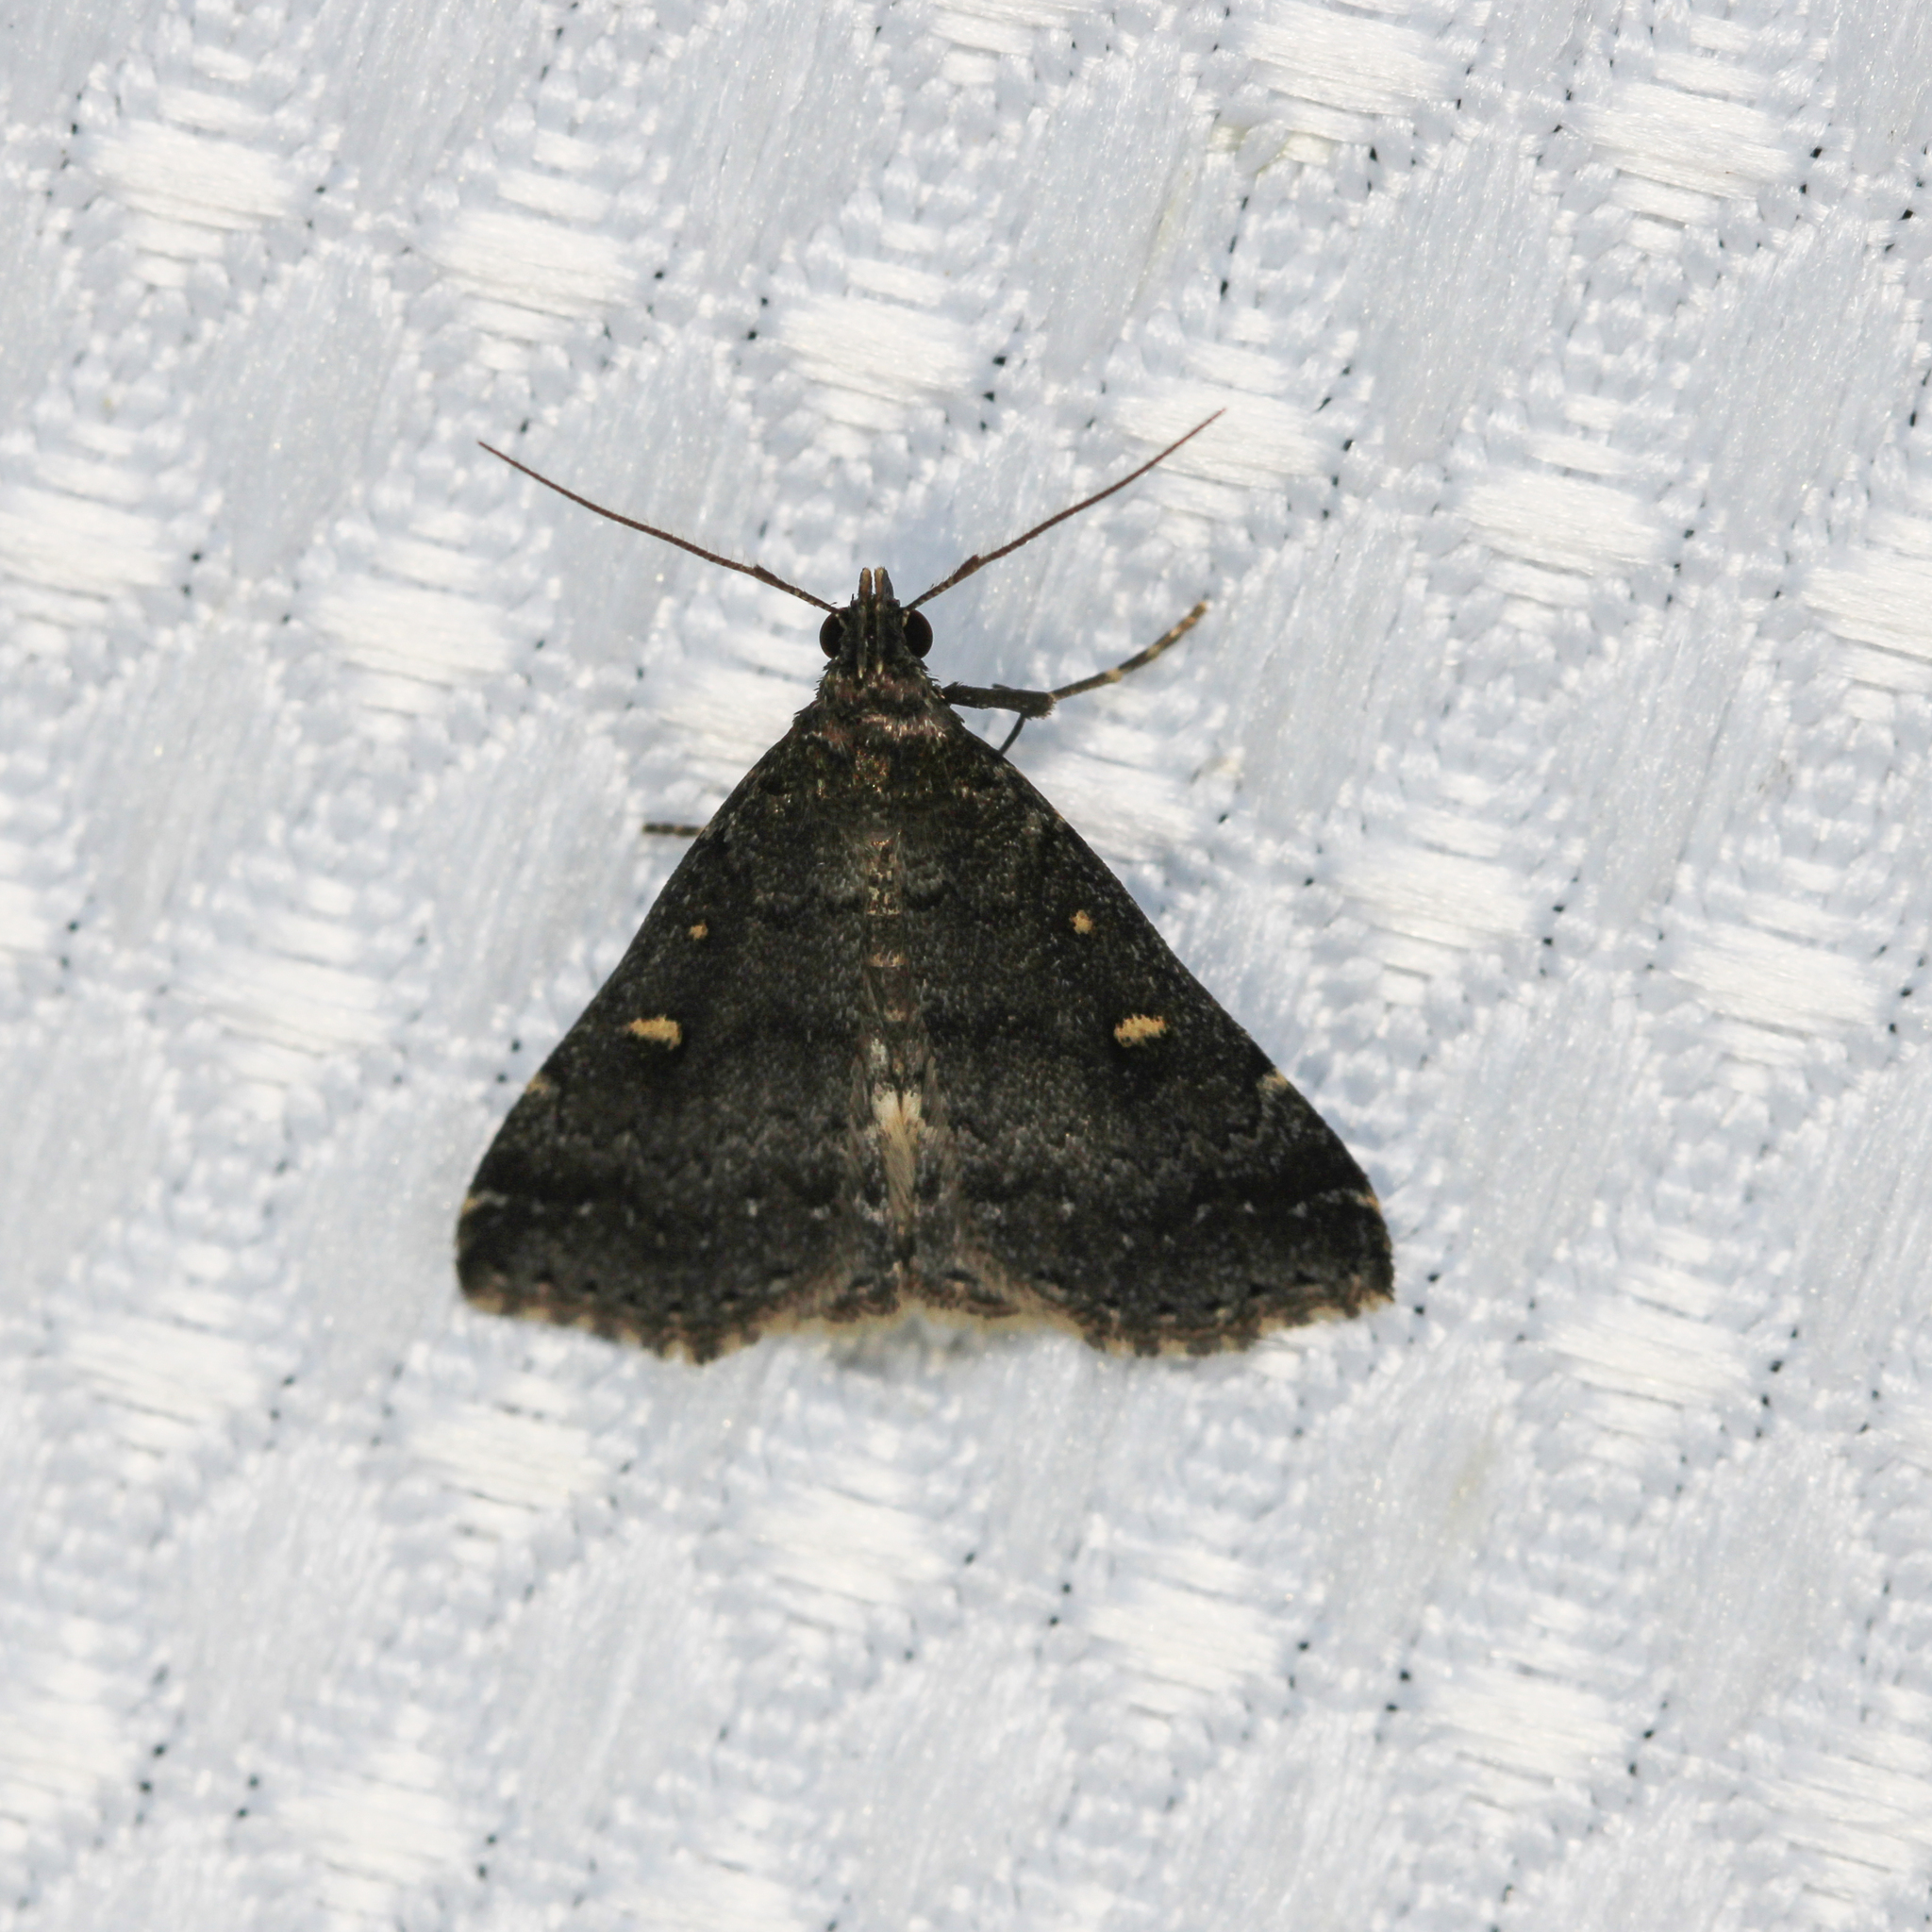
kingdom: Animalia
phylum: Arthropoda
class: Insecta
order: Lepidoptera
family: Erebidae
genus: Tetanolita
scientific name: Tetanolita mynesalis
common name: Smoky tetanolita moth
